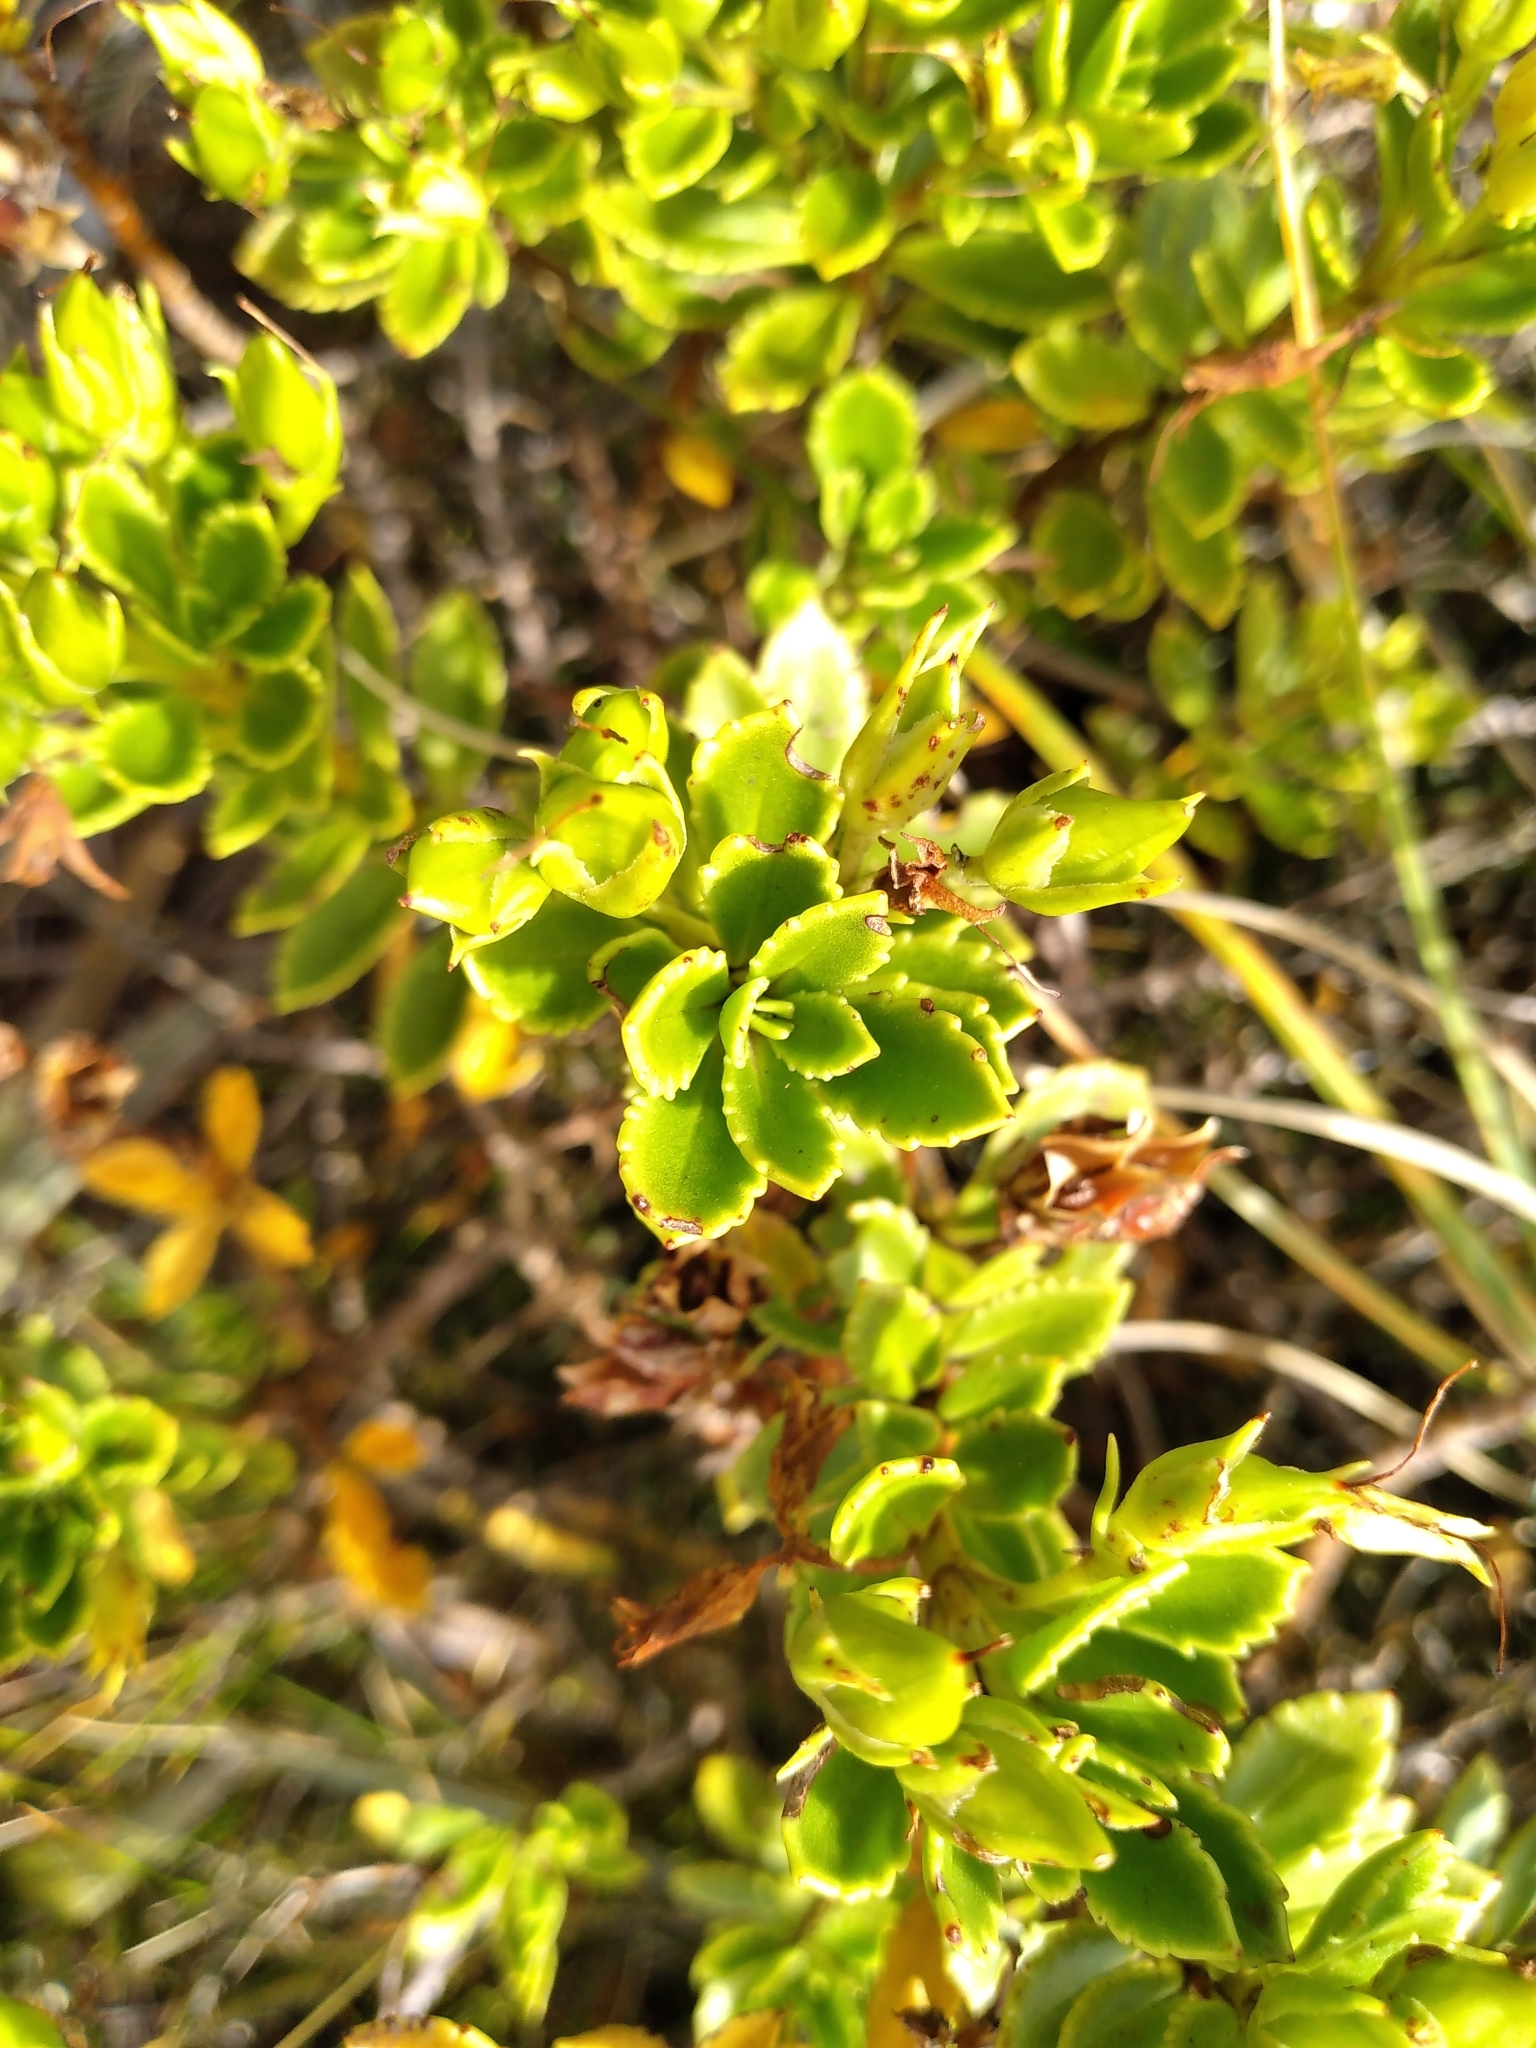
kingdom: Plantae
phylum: Tracheophyta
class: Magnoliopsida
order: Lamiales
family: Plantaginaceae
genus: Veronica
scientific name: Veronica macrantha
